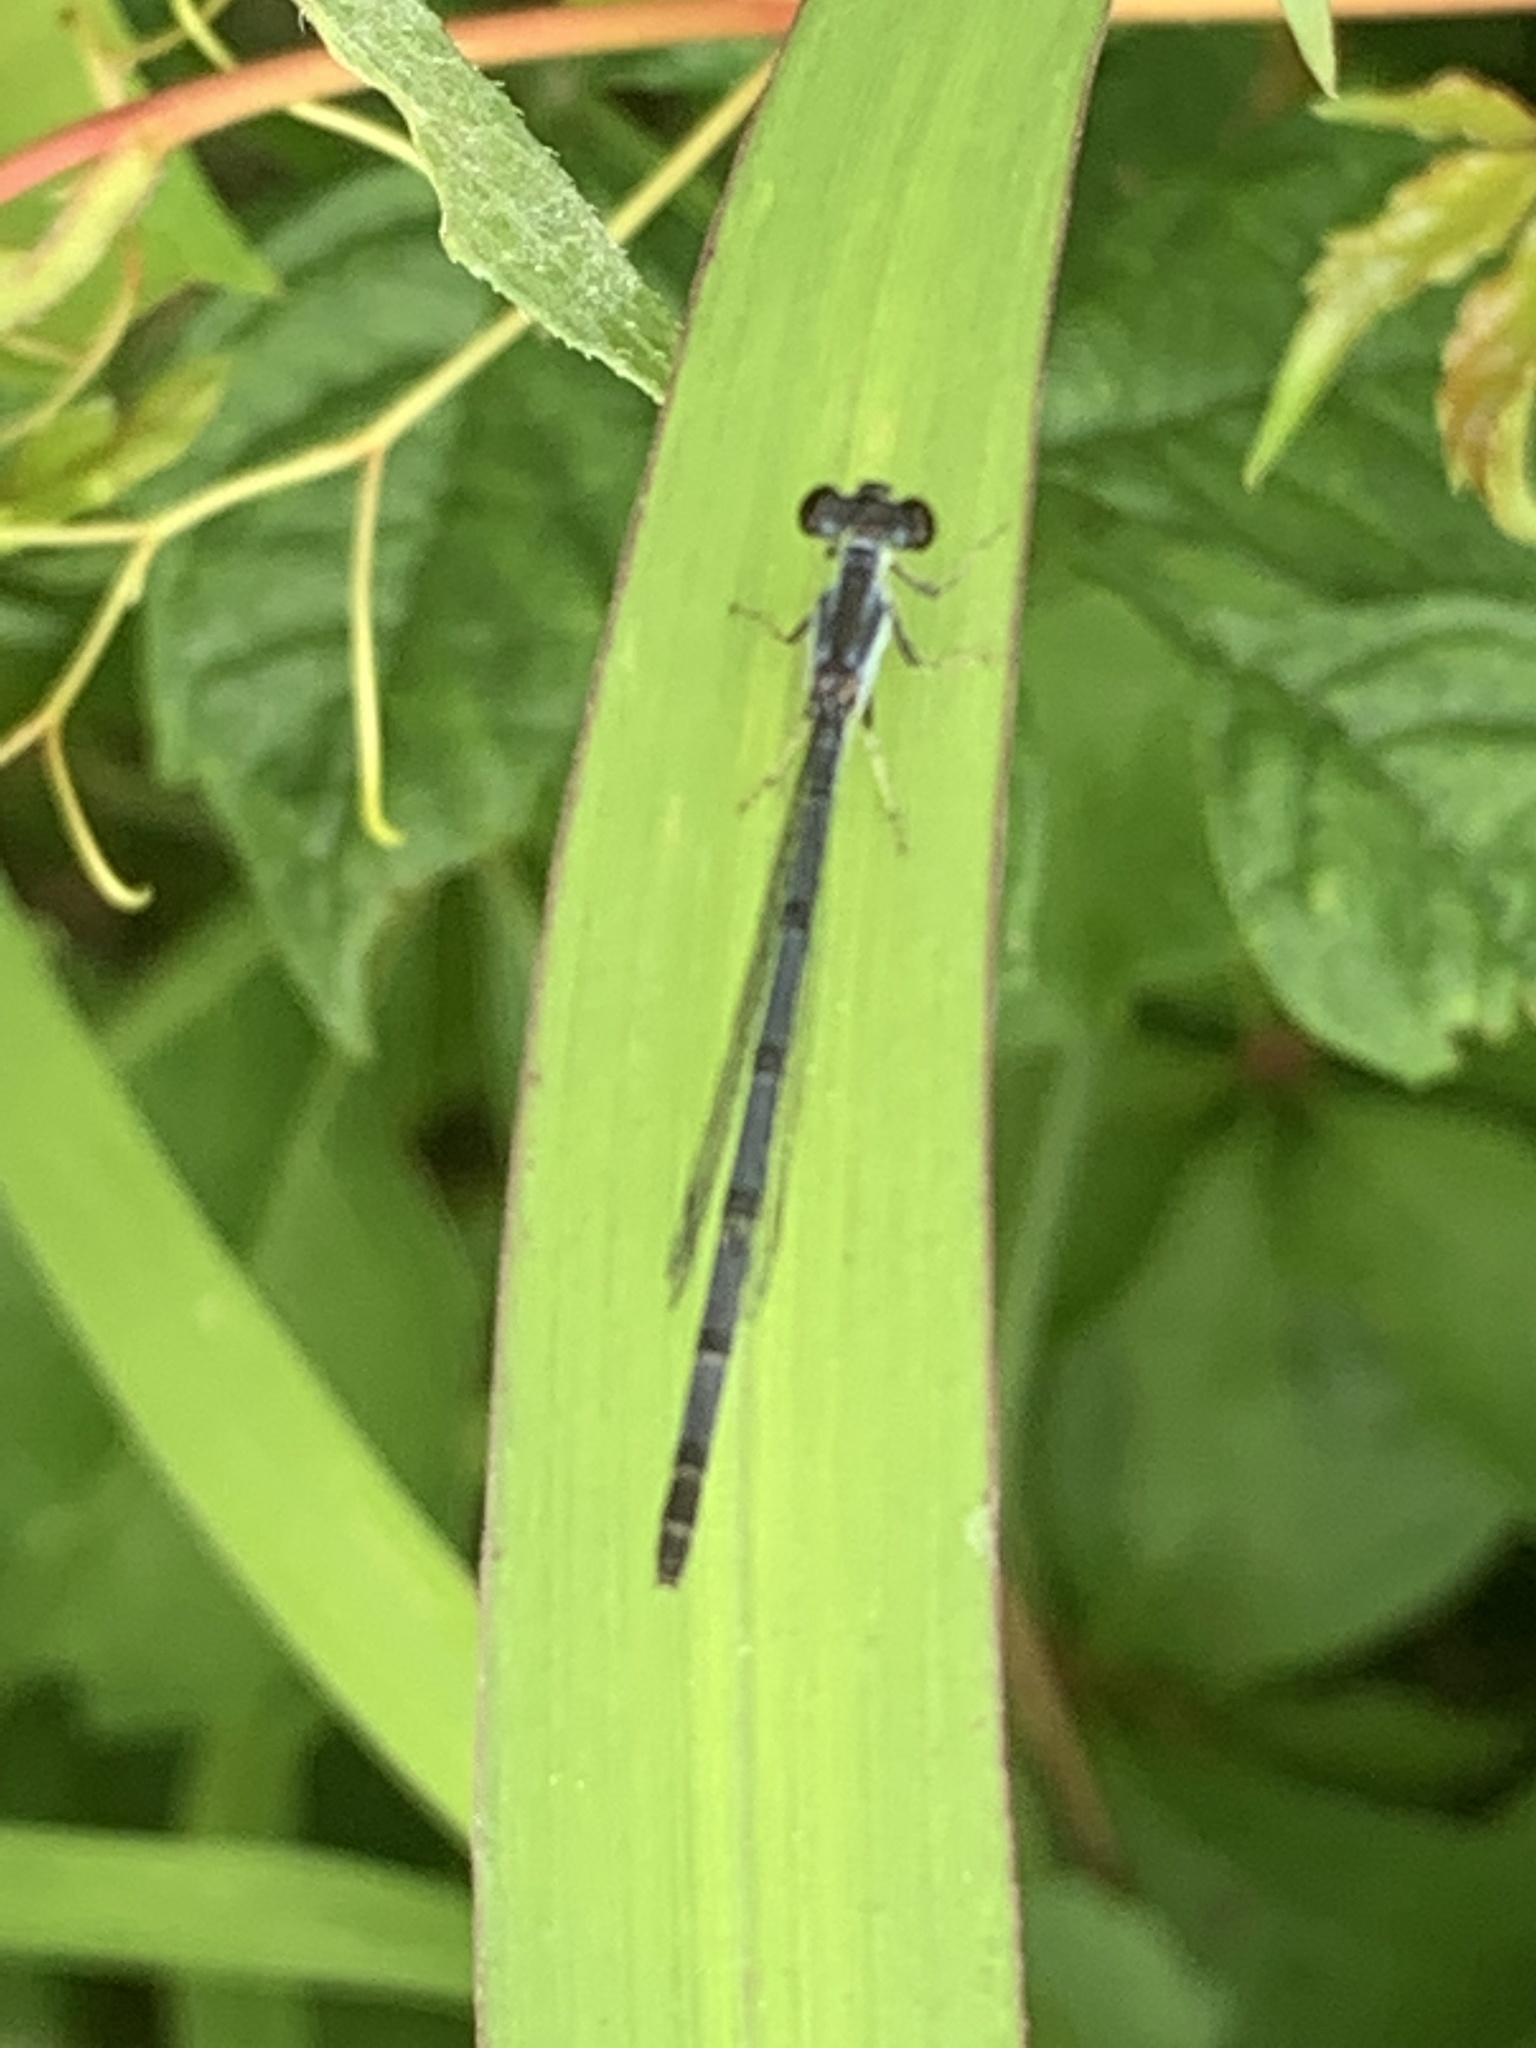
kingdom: Animalia
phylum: Arthropoda
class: Insecta
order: Odonata
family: Coenagrionidae
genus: Ischnura
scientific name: Ischnura posita
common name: Fragile forktail
